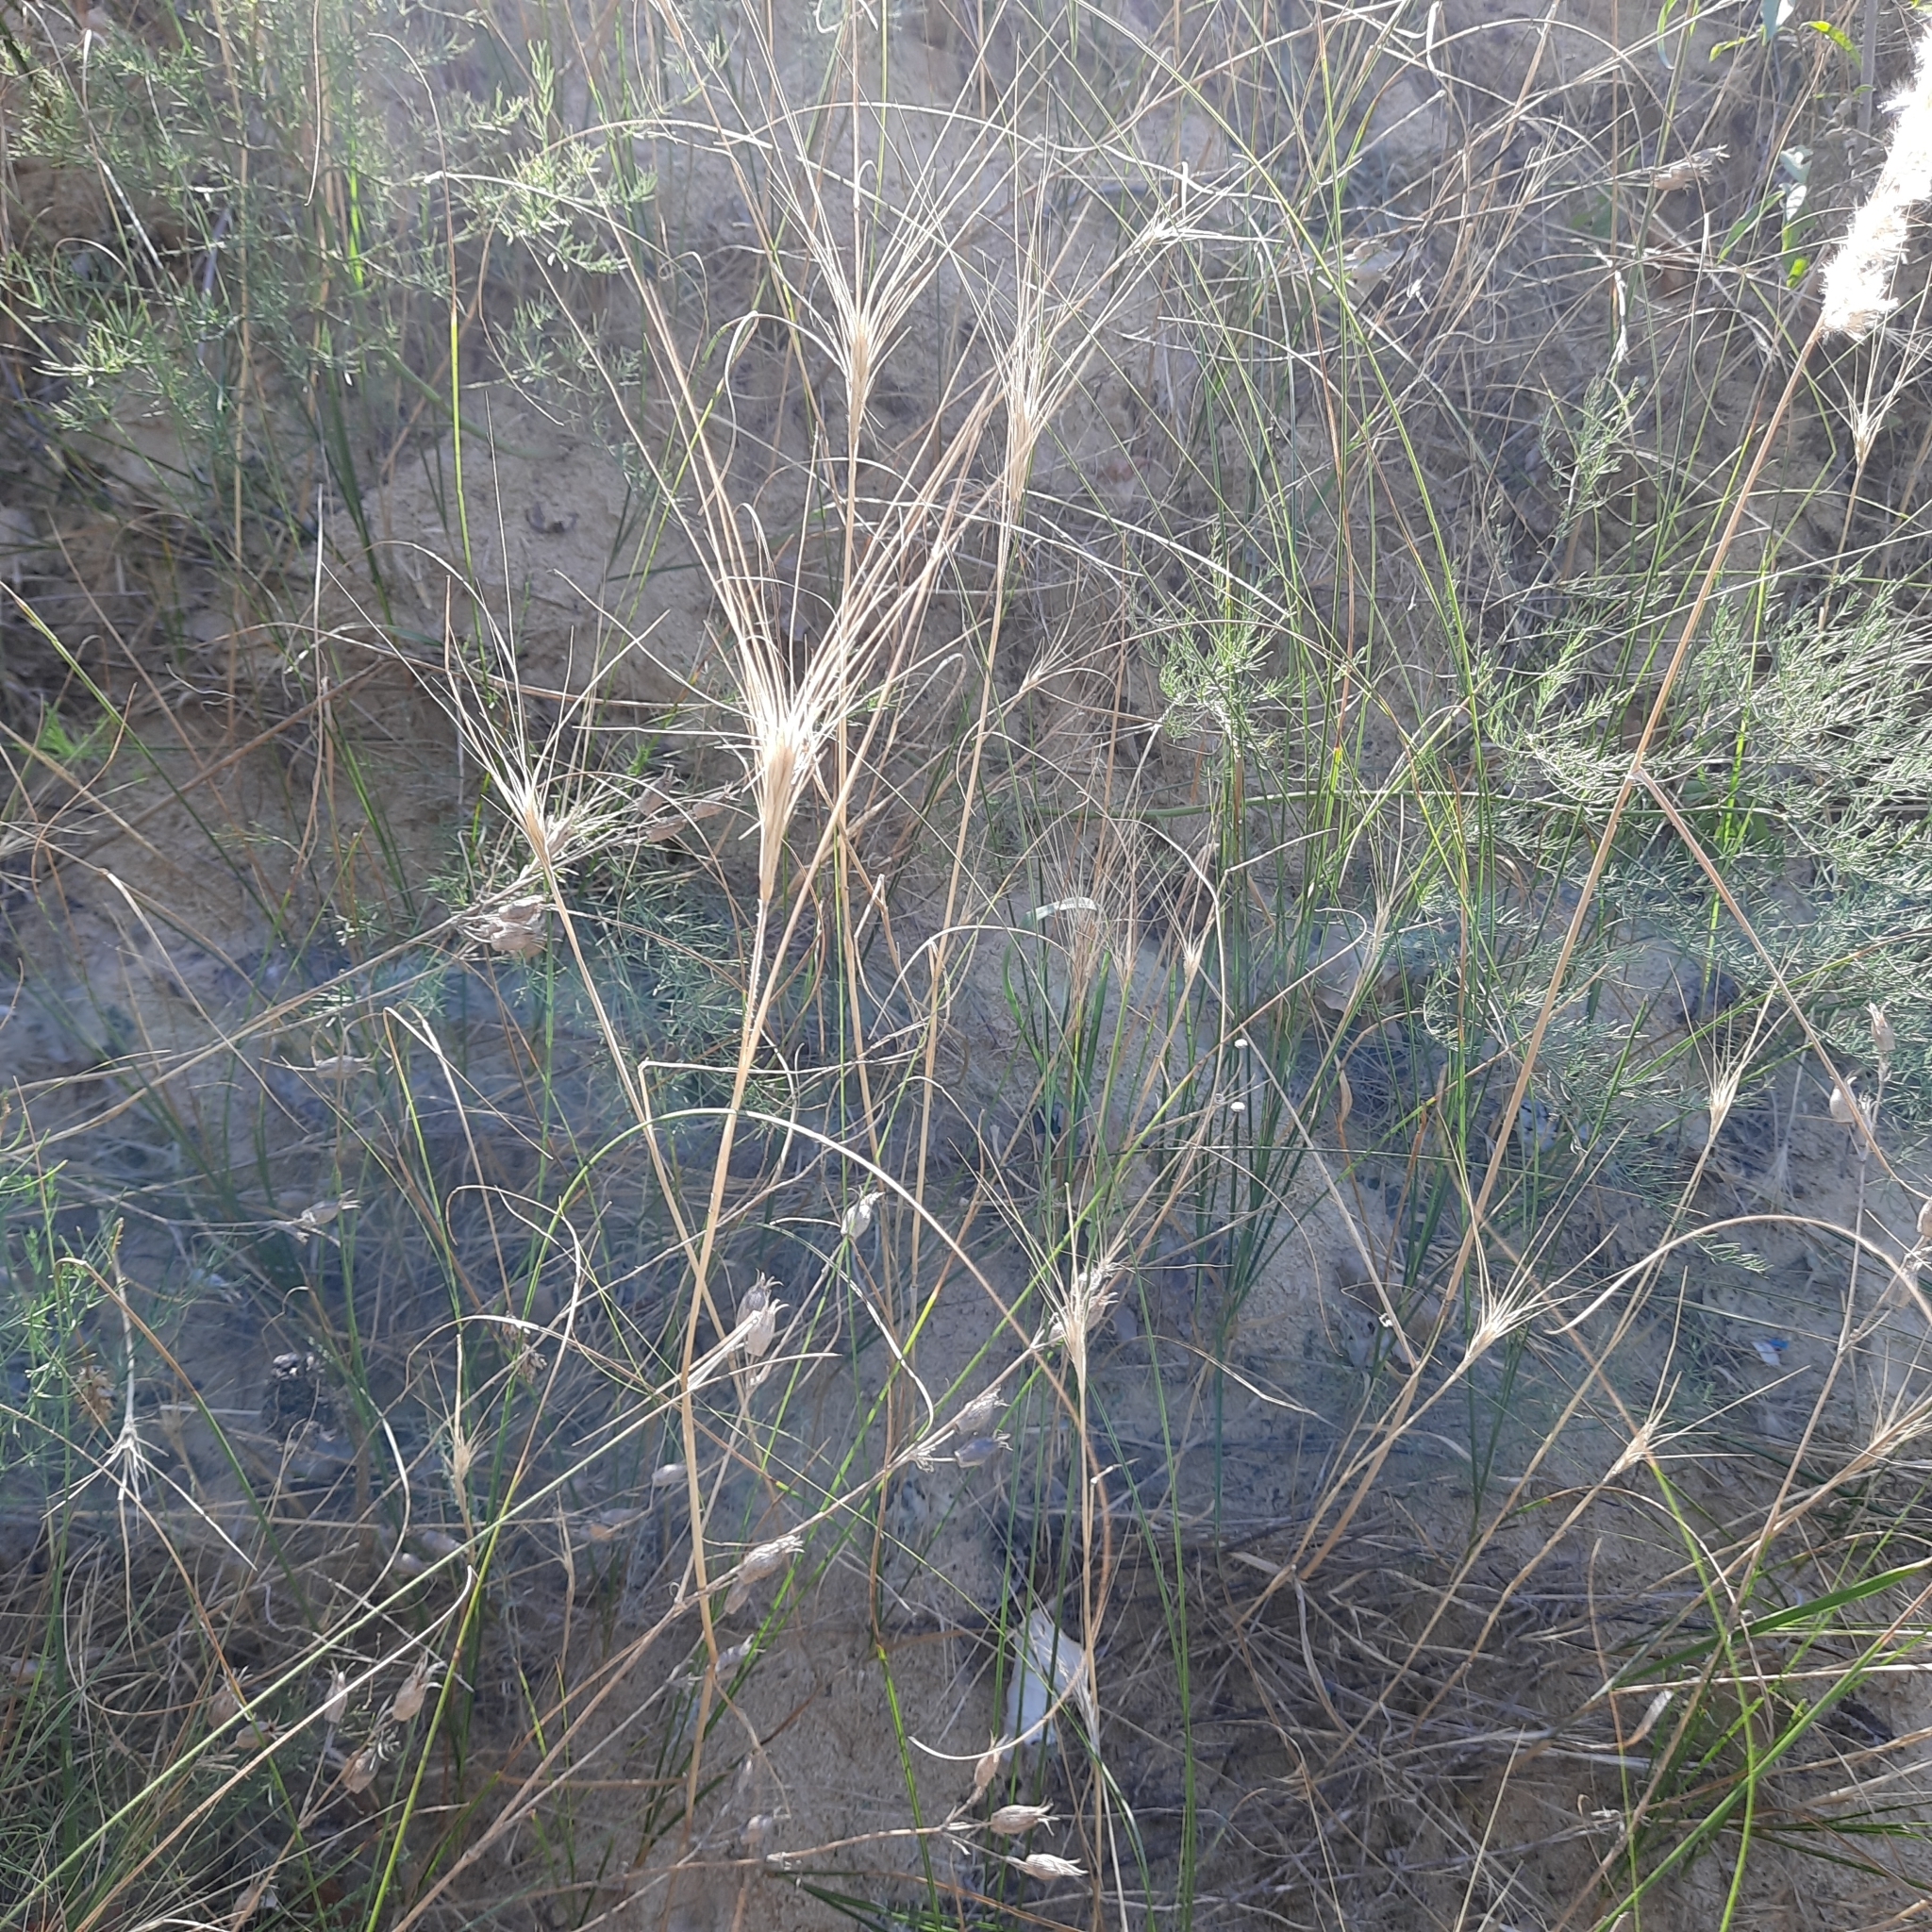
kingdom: Plantae
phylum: Tracheophyta
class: Liliopsida
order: Poales
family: Poaceae
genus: Secale
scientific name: Secale sylvestre
